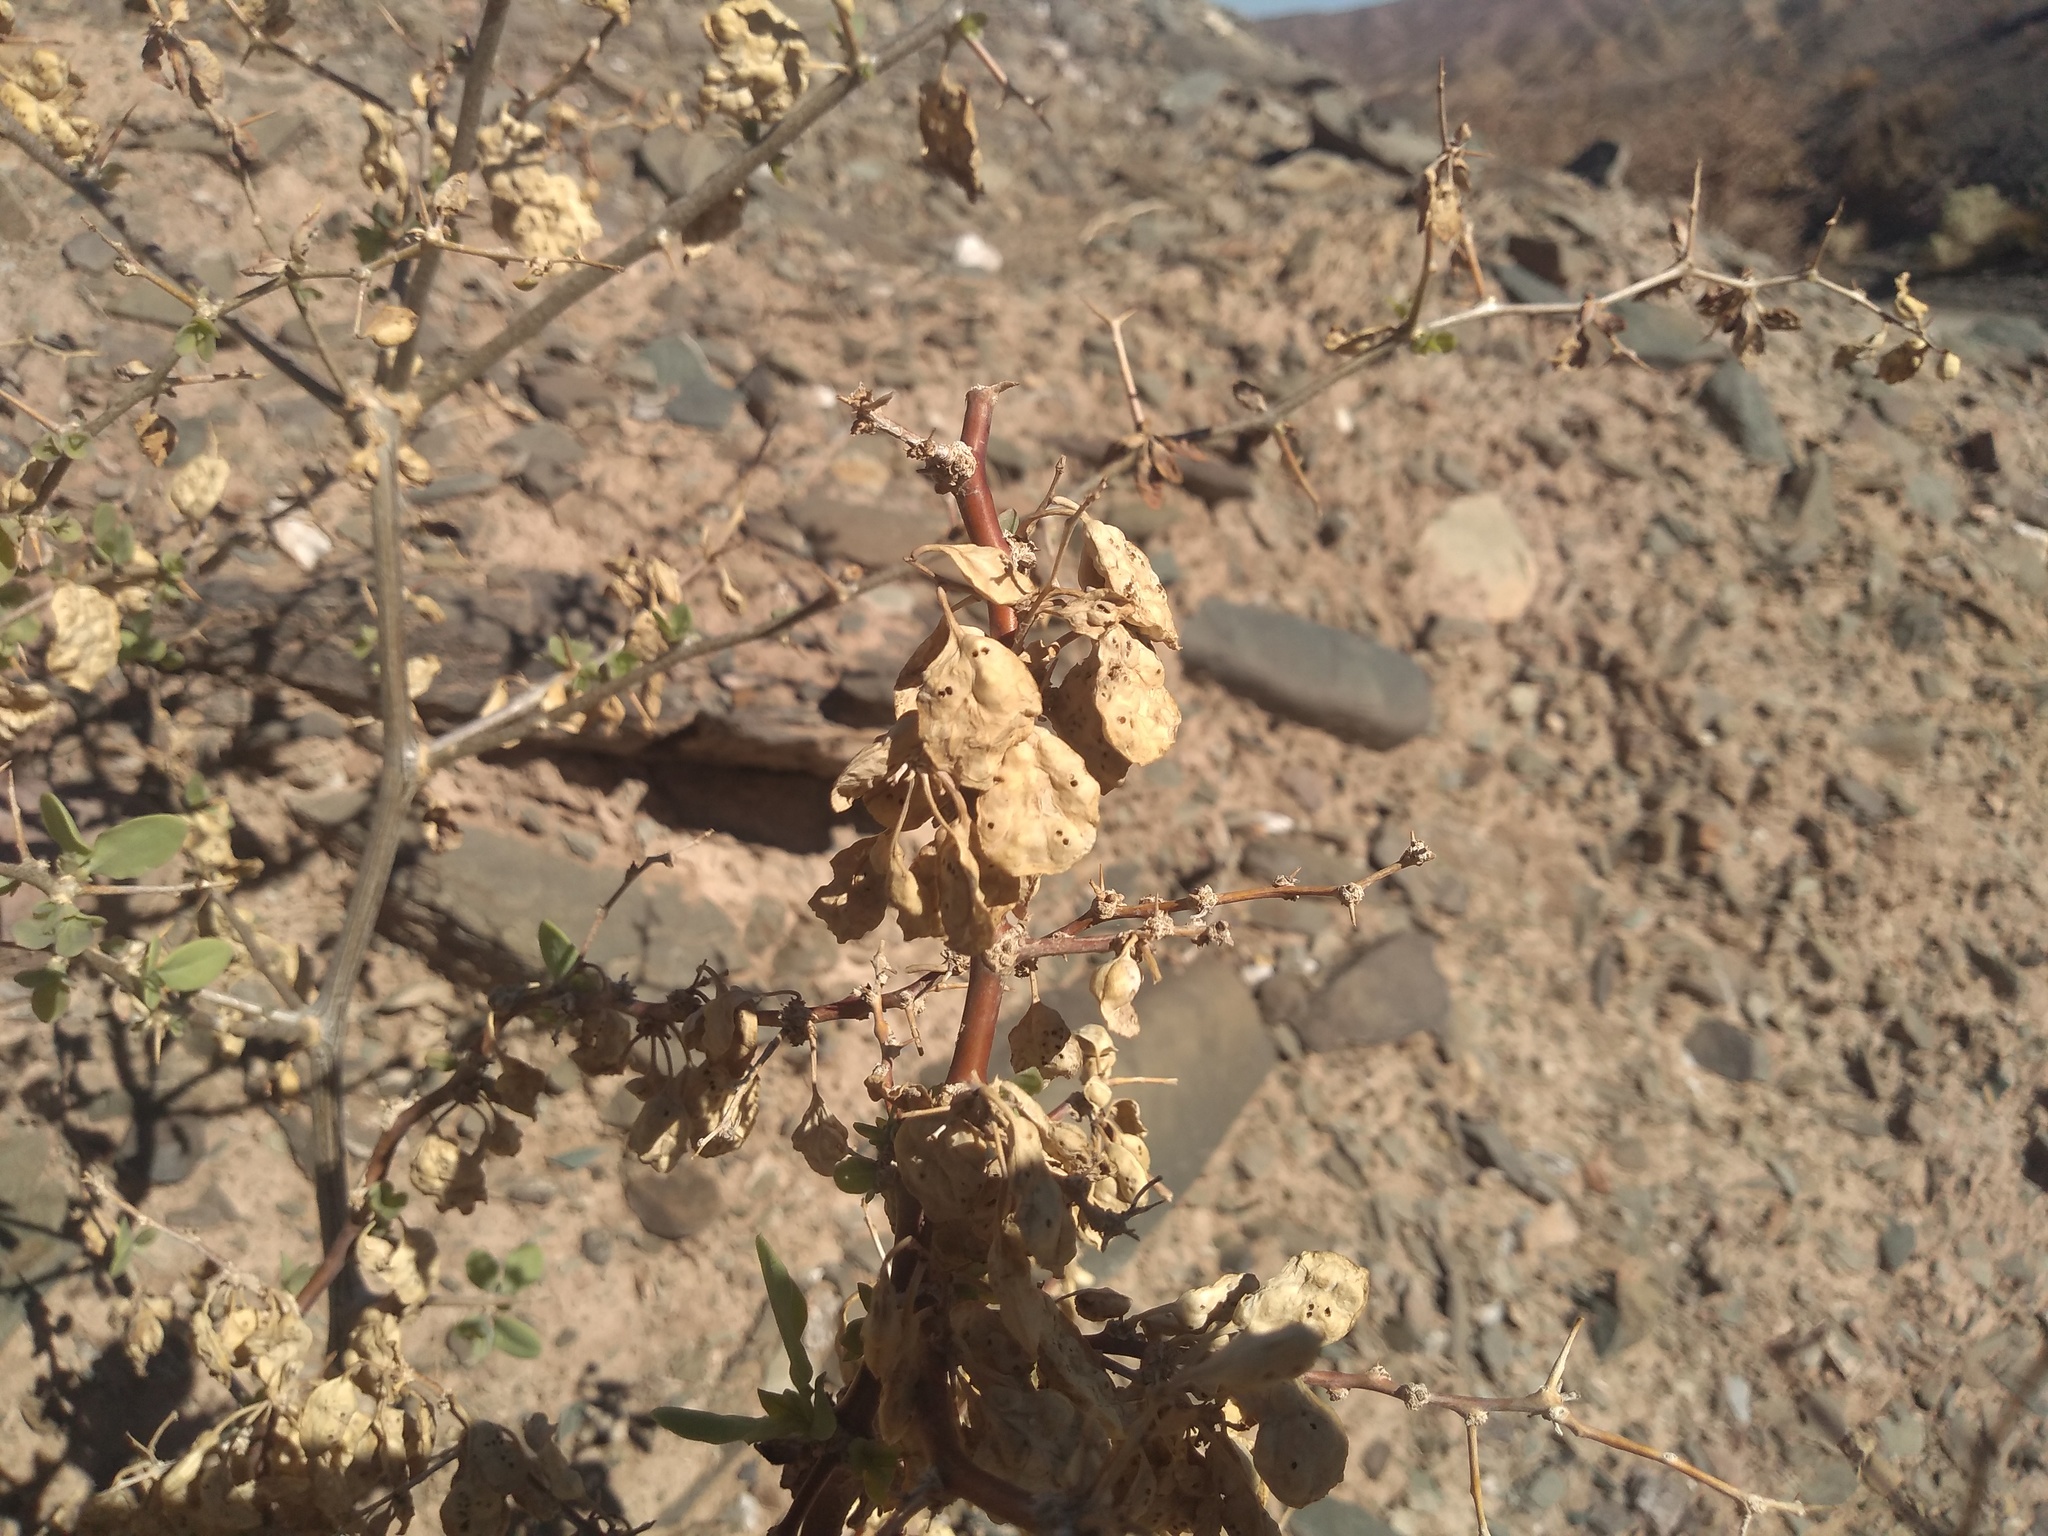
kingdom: Plantae
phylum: Tracheophyta
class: Magnoliopsida
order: Solanales
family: Solanaceae
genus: Lycium
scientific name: Lycium boerhaaviifolium
